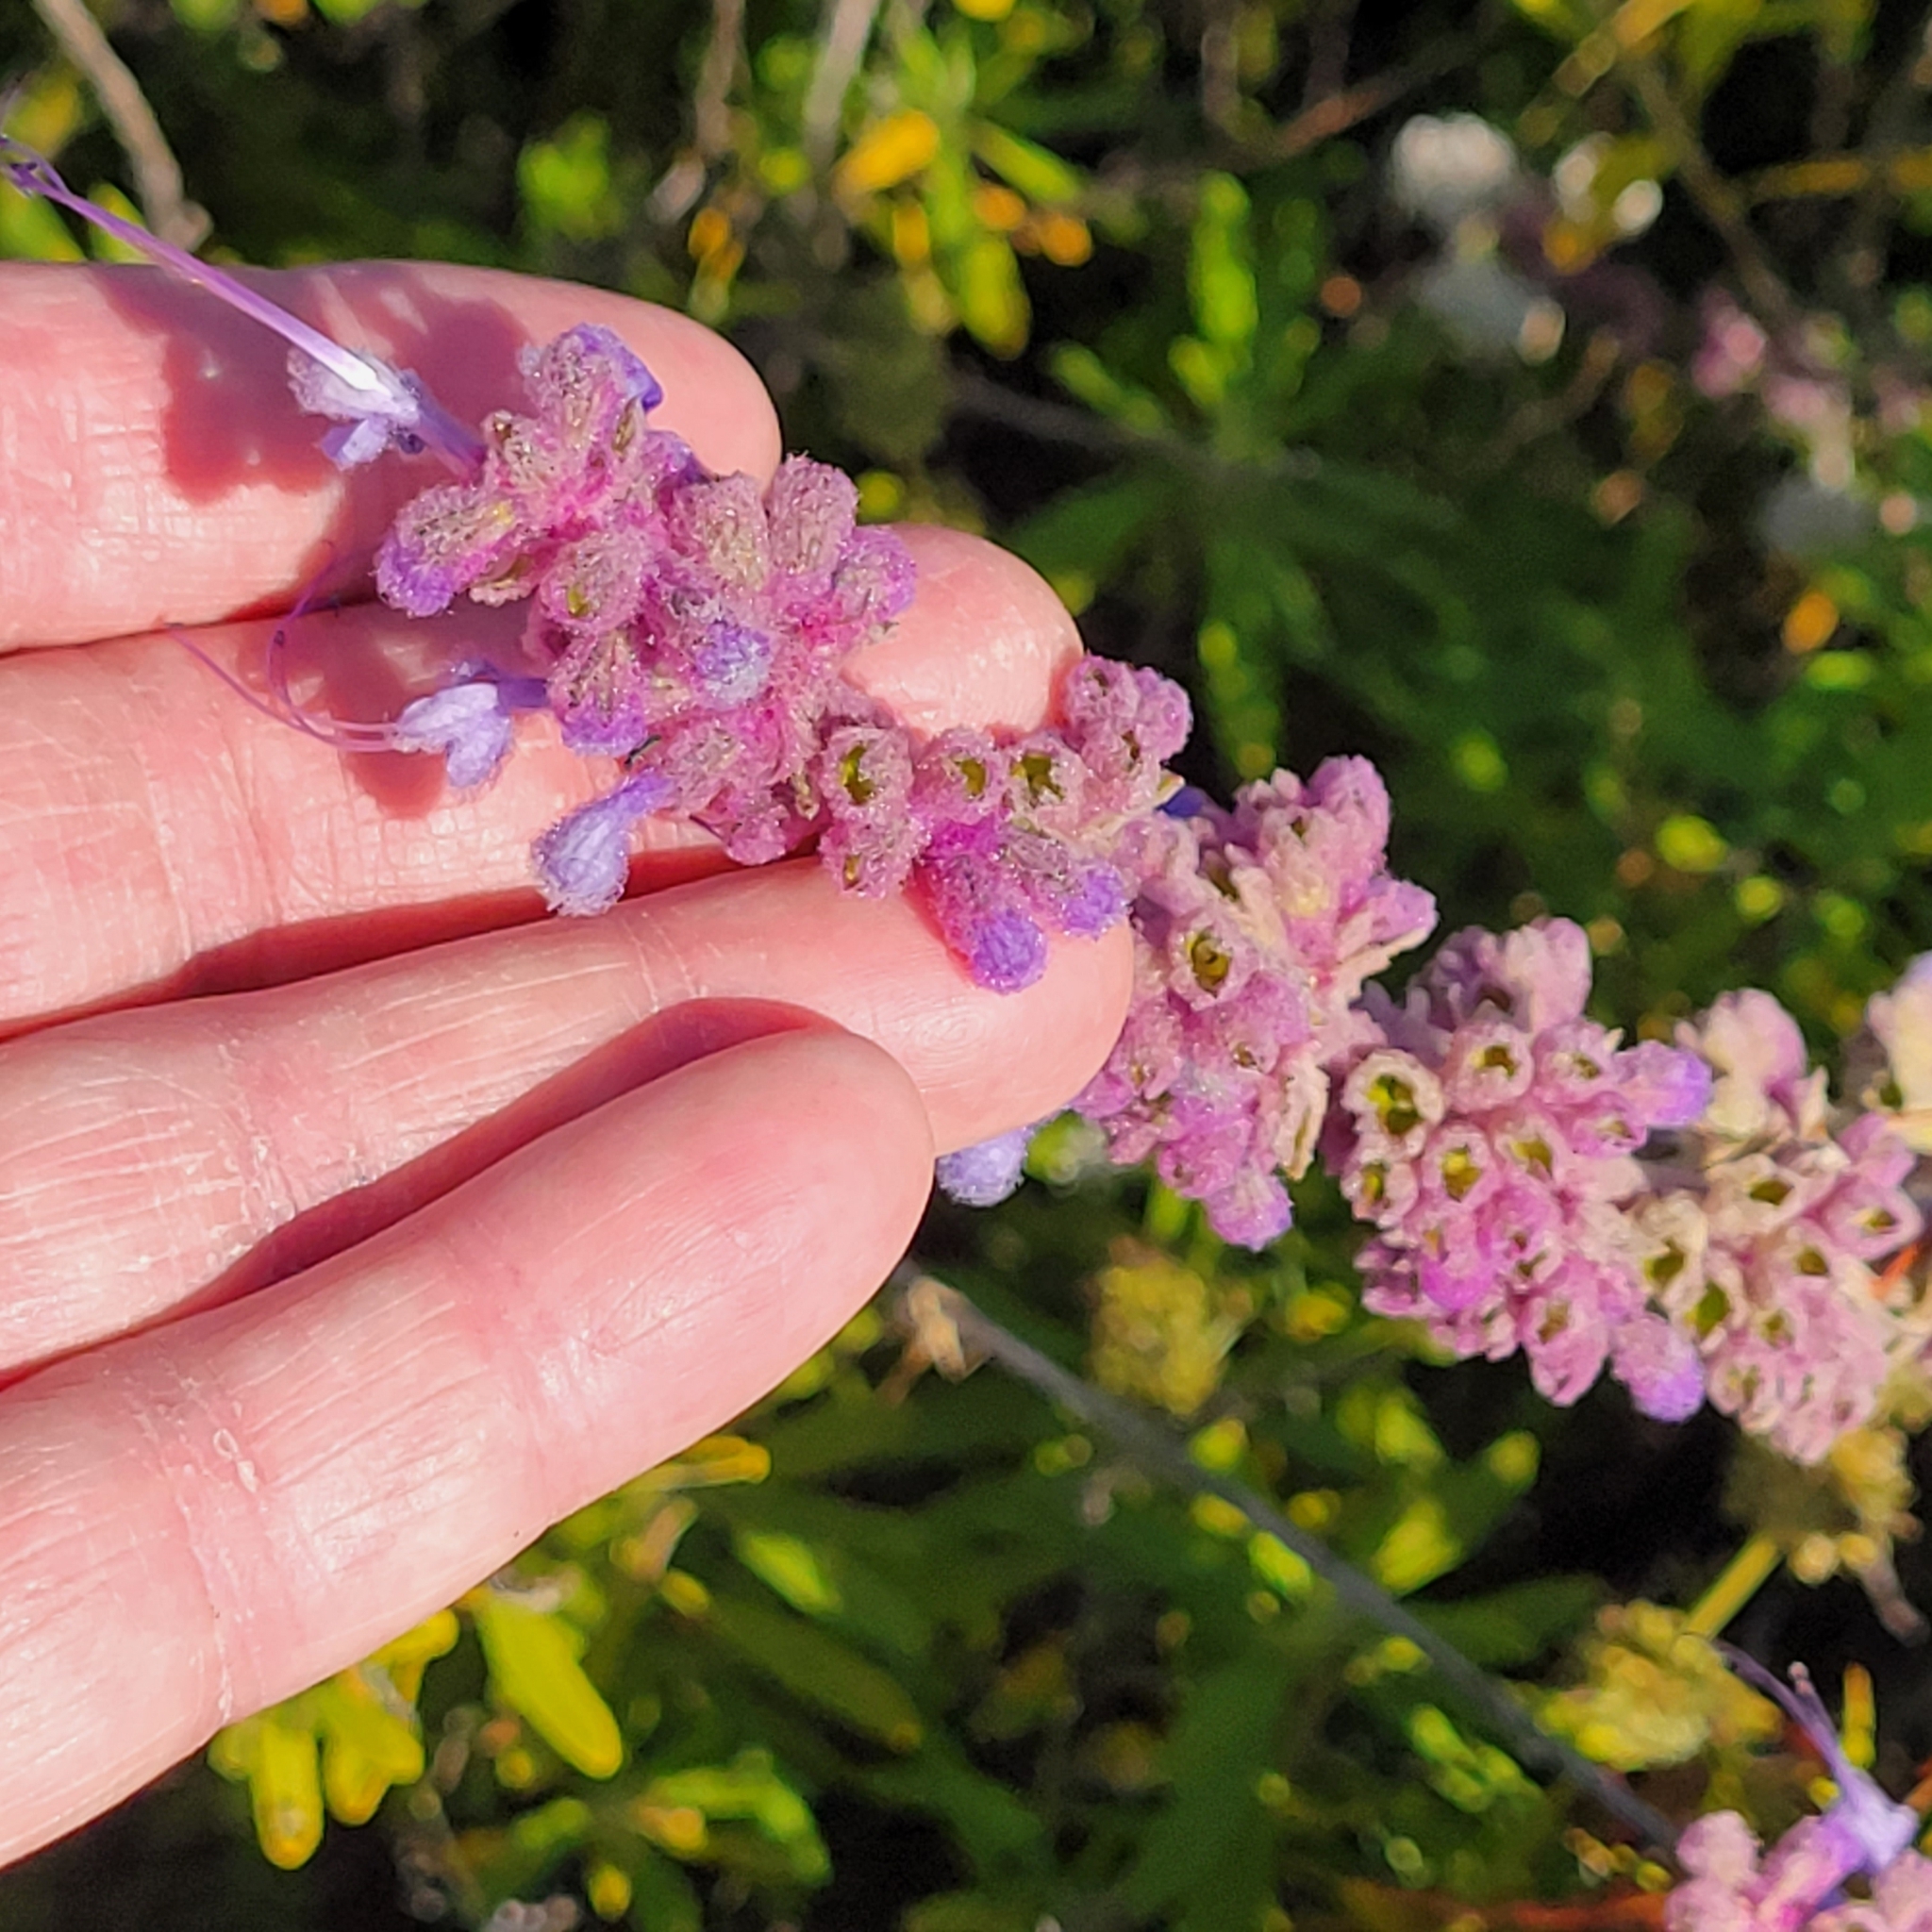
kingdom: Plantae
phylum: Tracheophyta
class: Magnoliopsida
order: Lamiales
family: Lamiaceae
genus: Trichostema
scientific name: Trichostema lanatum
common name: Woolly bluecurls
